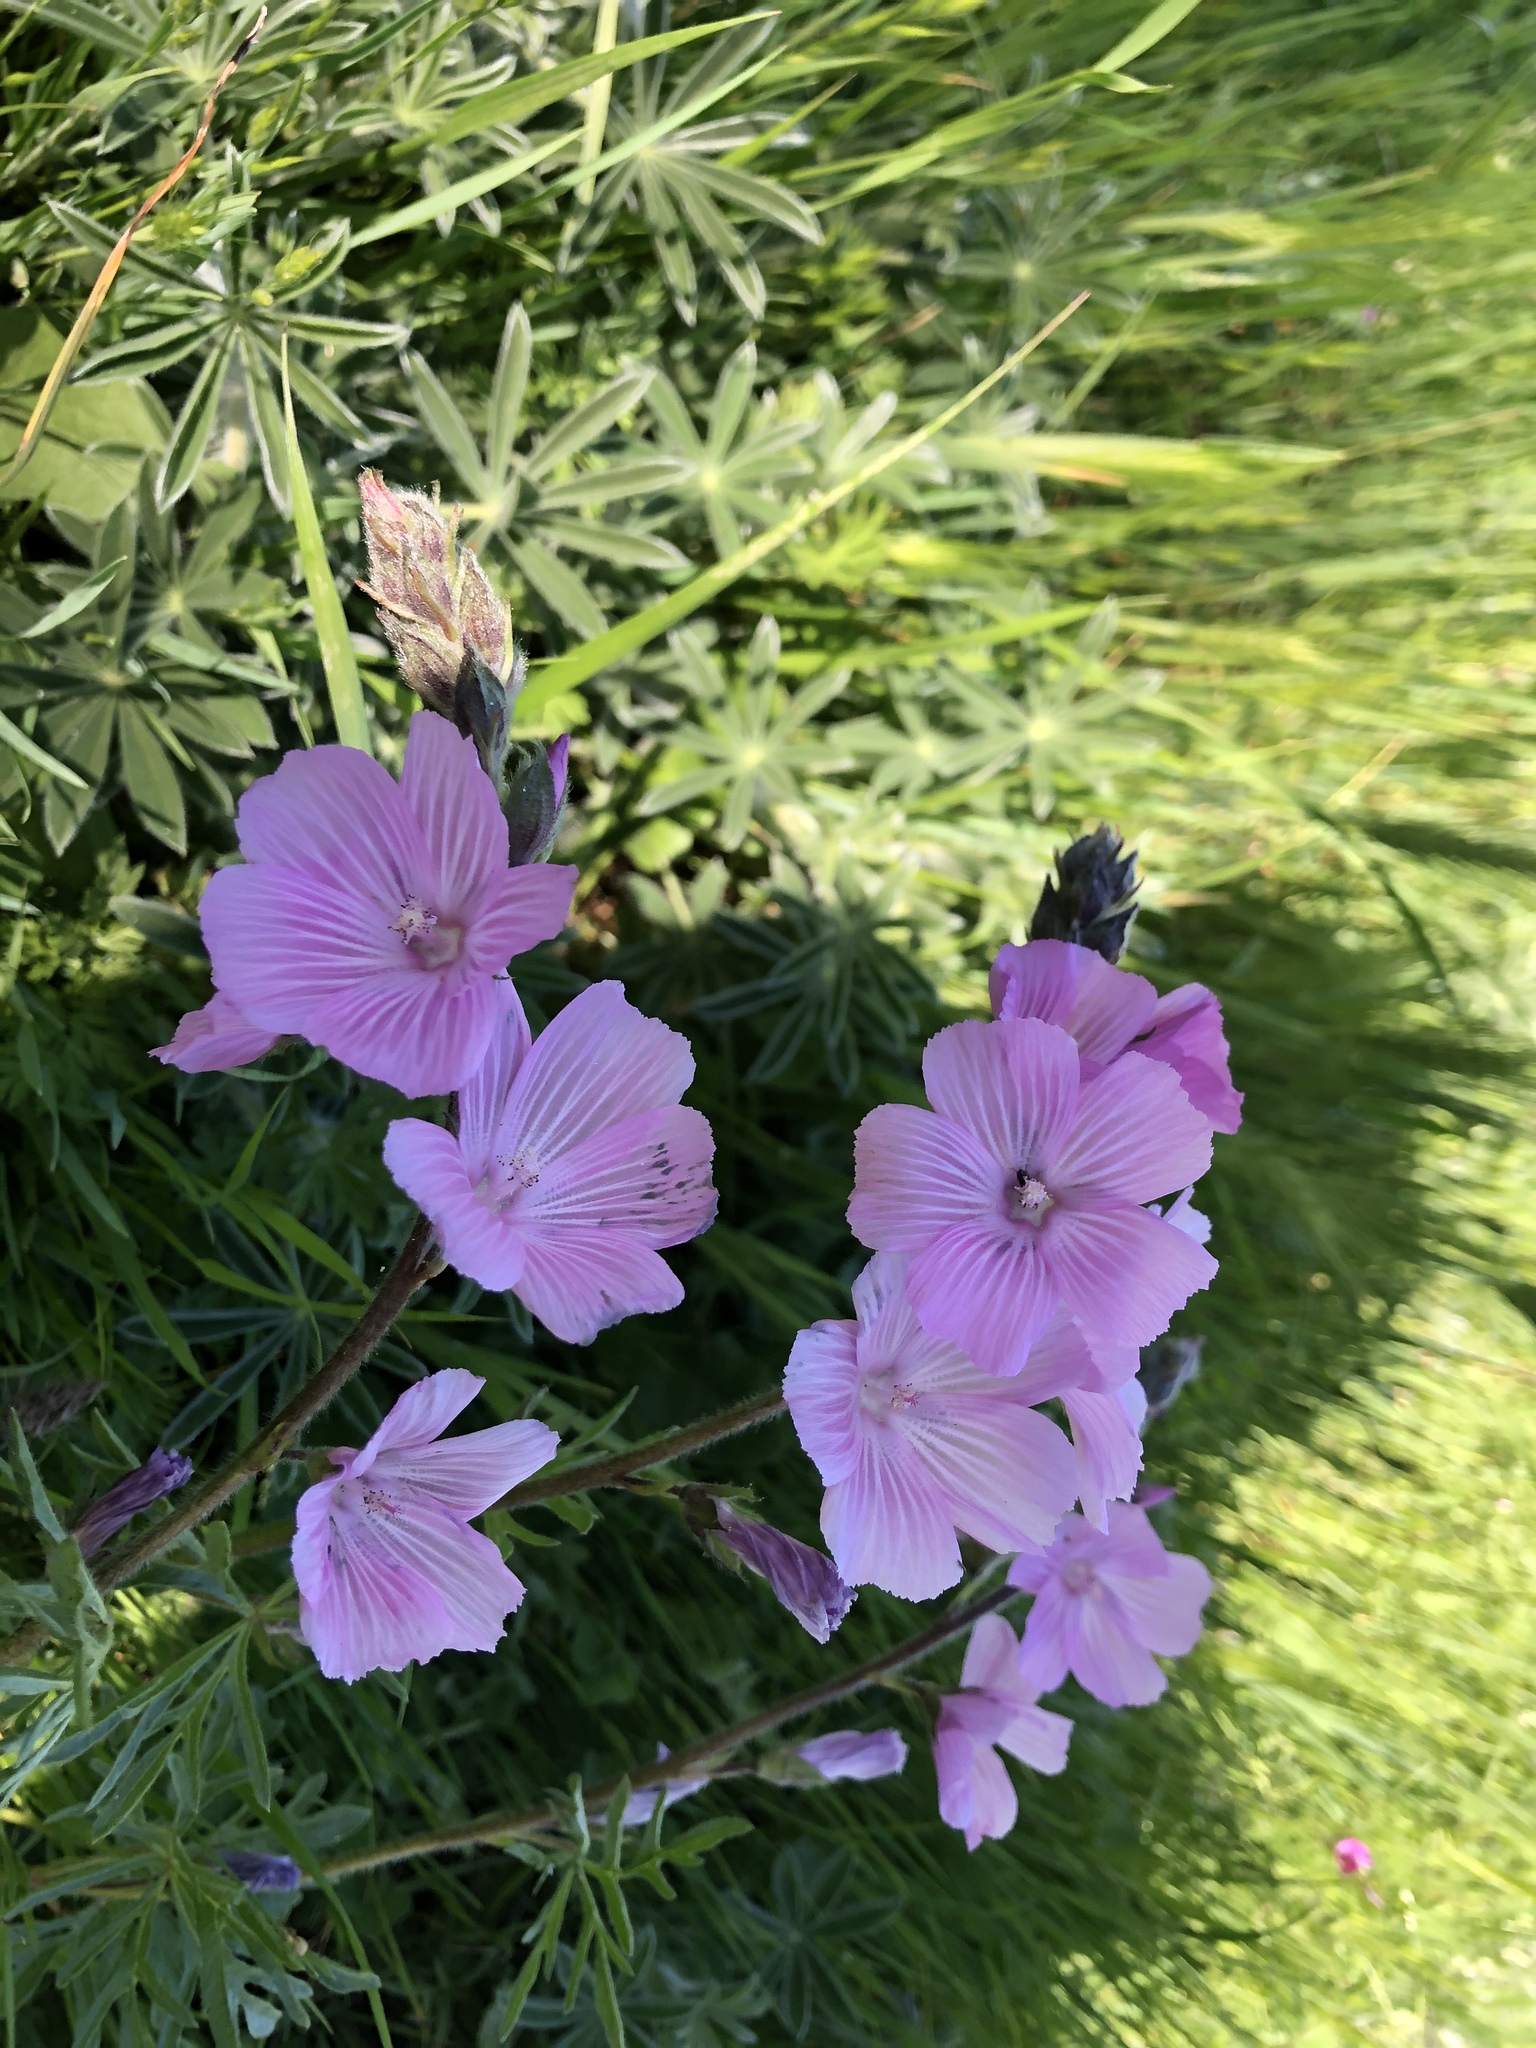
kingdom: Plantae
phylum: Tracheophyta
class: Magnoliopsida
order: Malvales
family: Malvaceae
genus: Sidalcea
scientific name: Sidalcea malviflora
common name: Greek mallow
